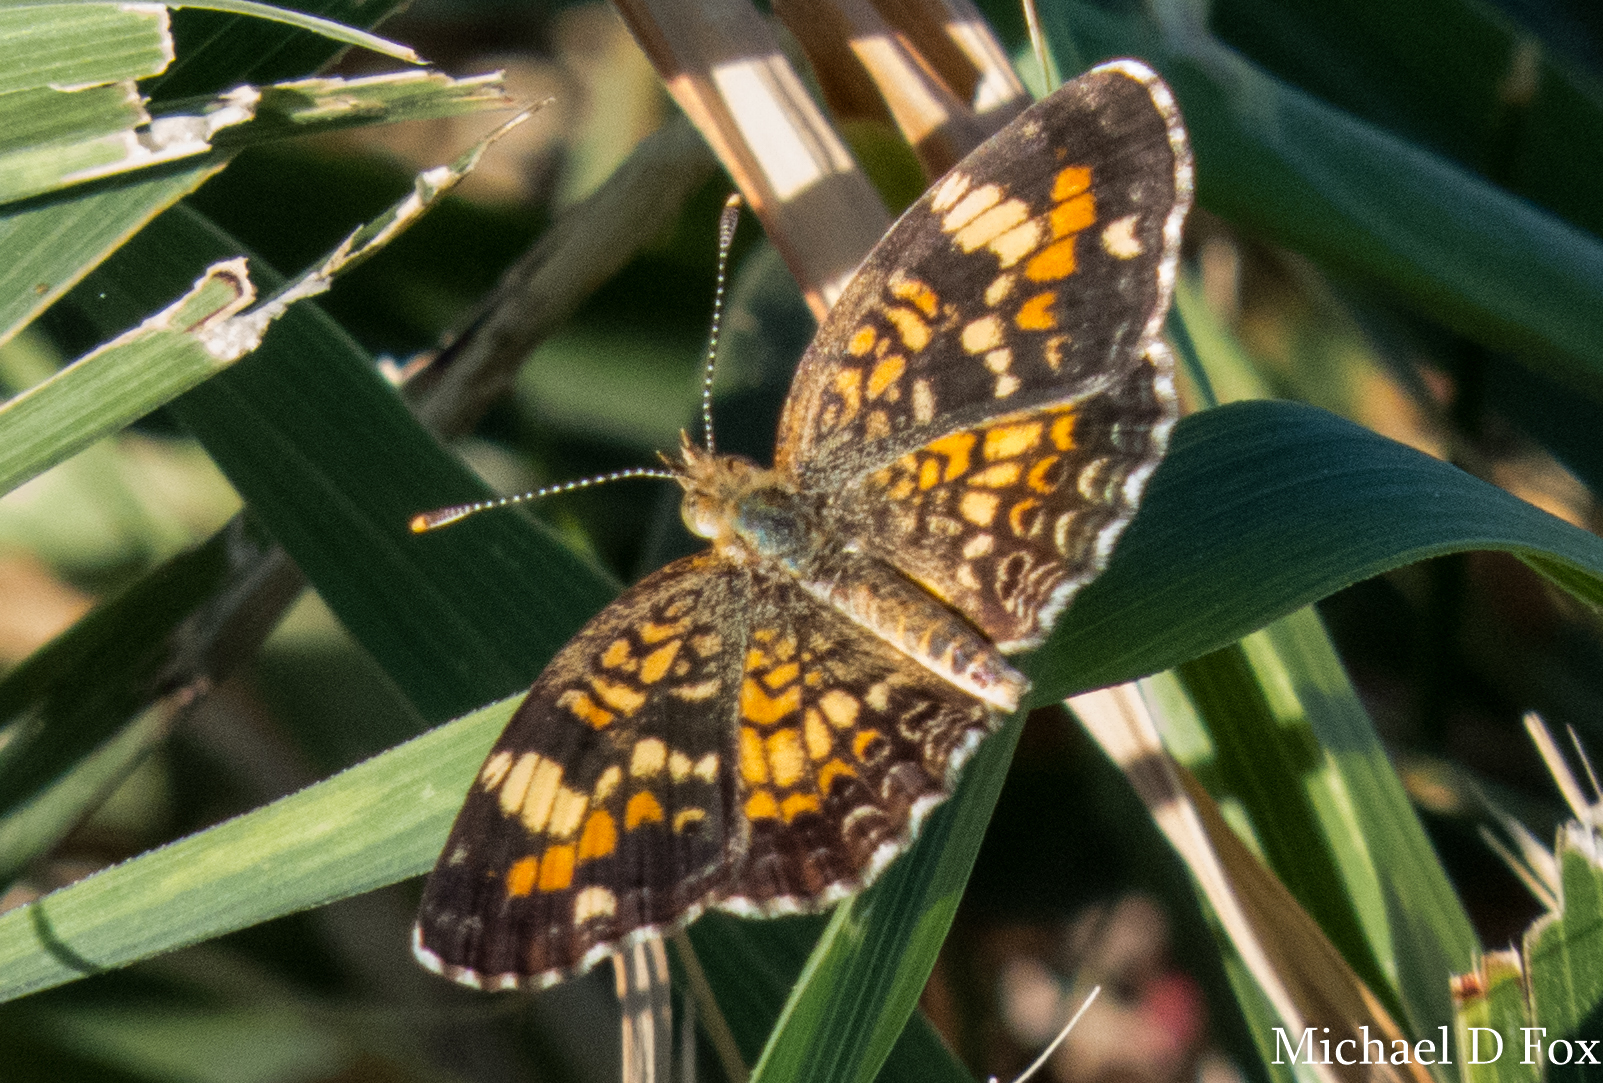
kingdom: Animalia
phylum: Arthropoda
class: Insecta
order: Lepidoptera
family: Nymphalidae
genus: Phyciodes
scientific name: Phyciodes phaon
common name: Phaon crescent
